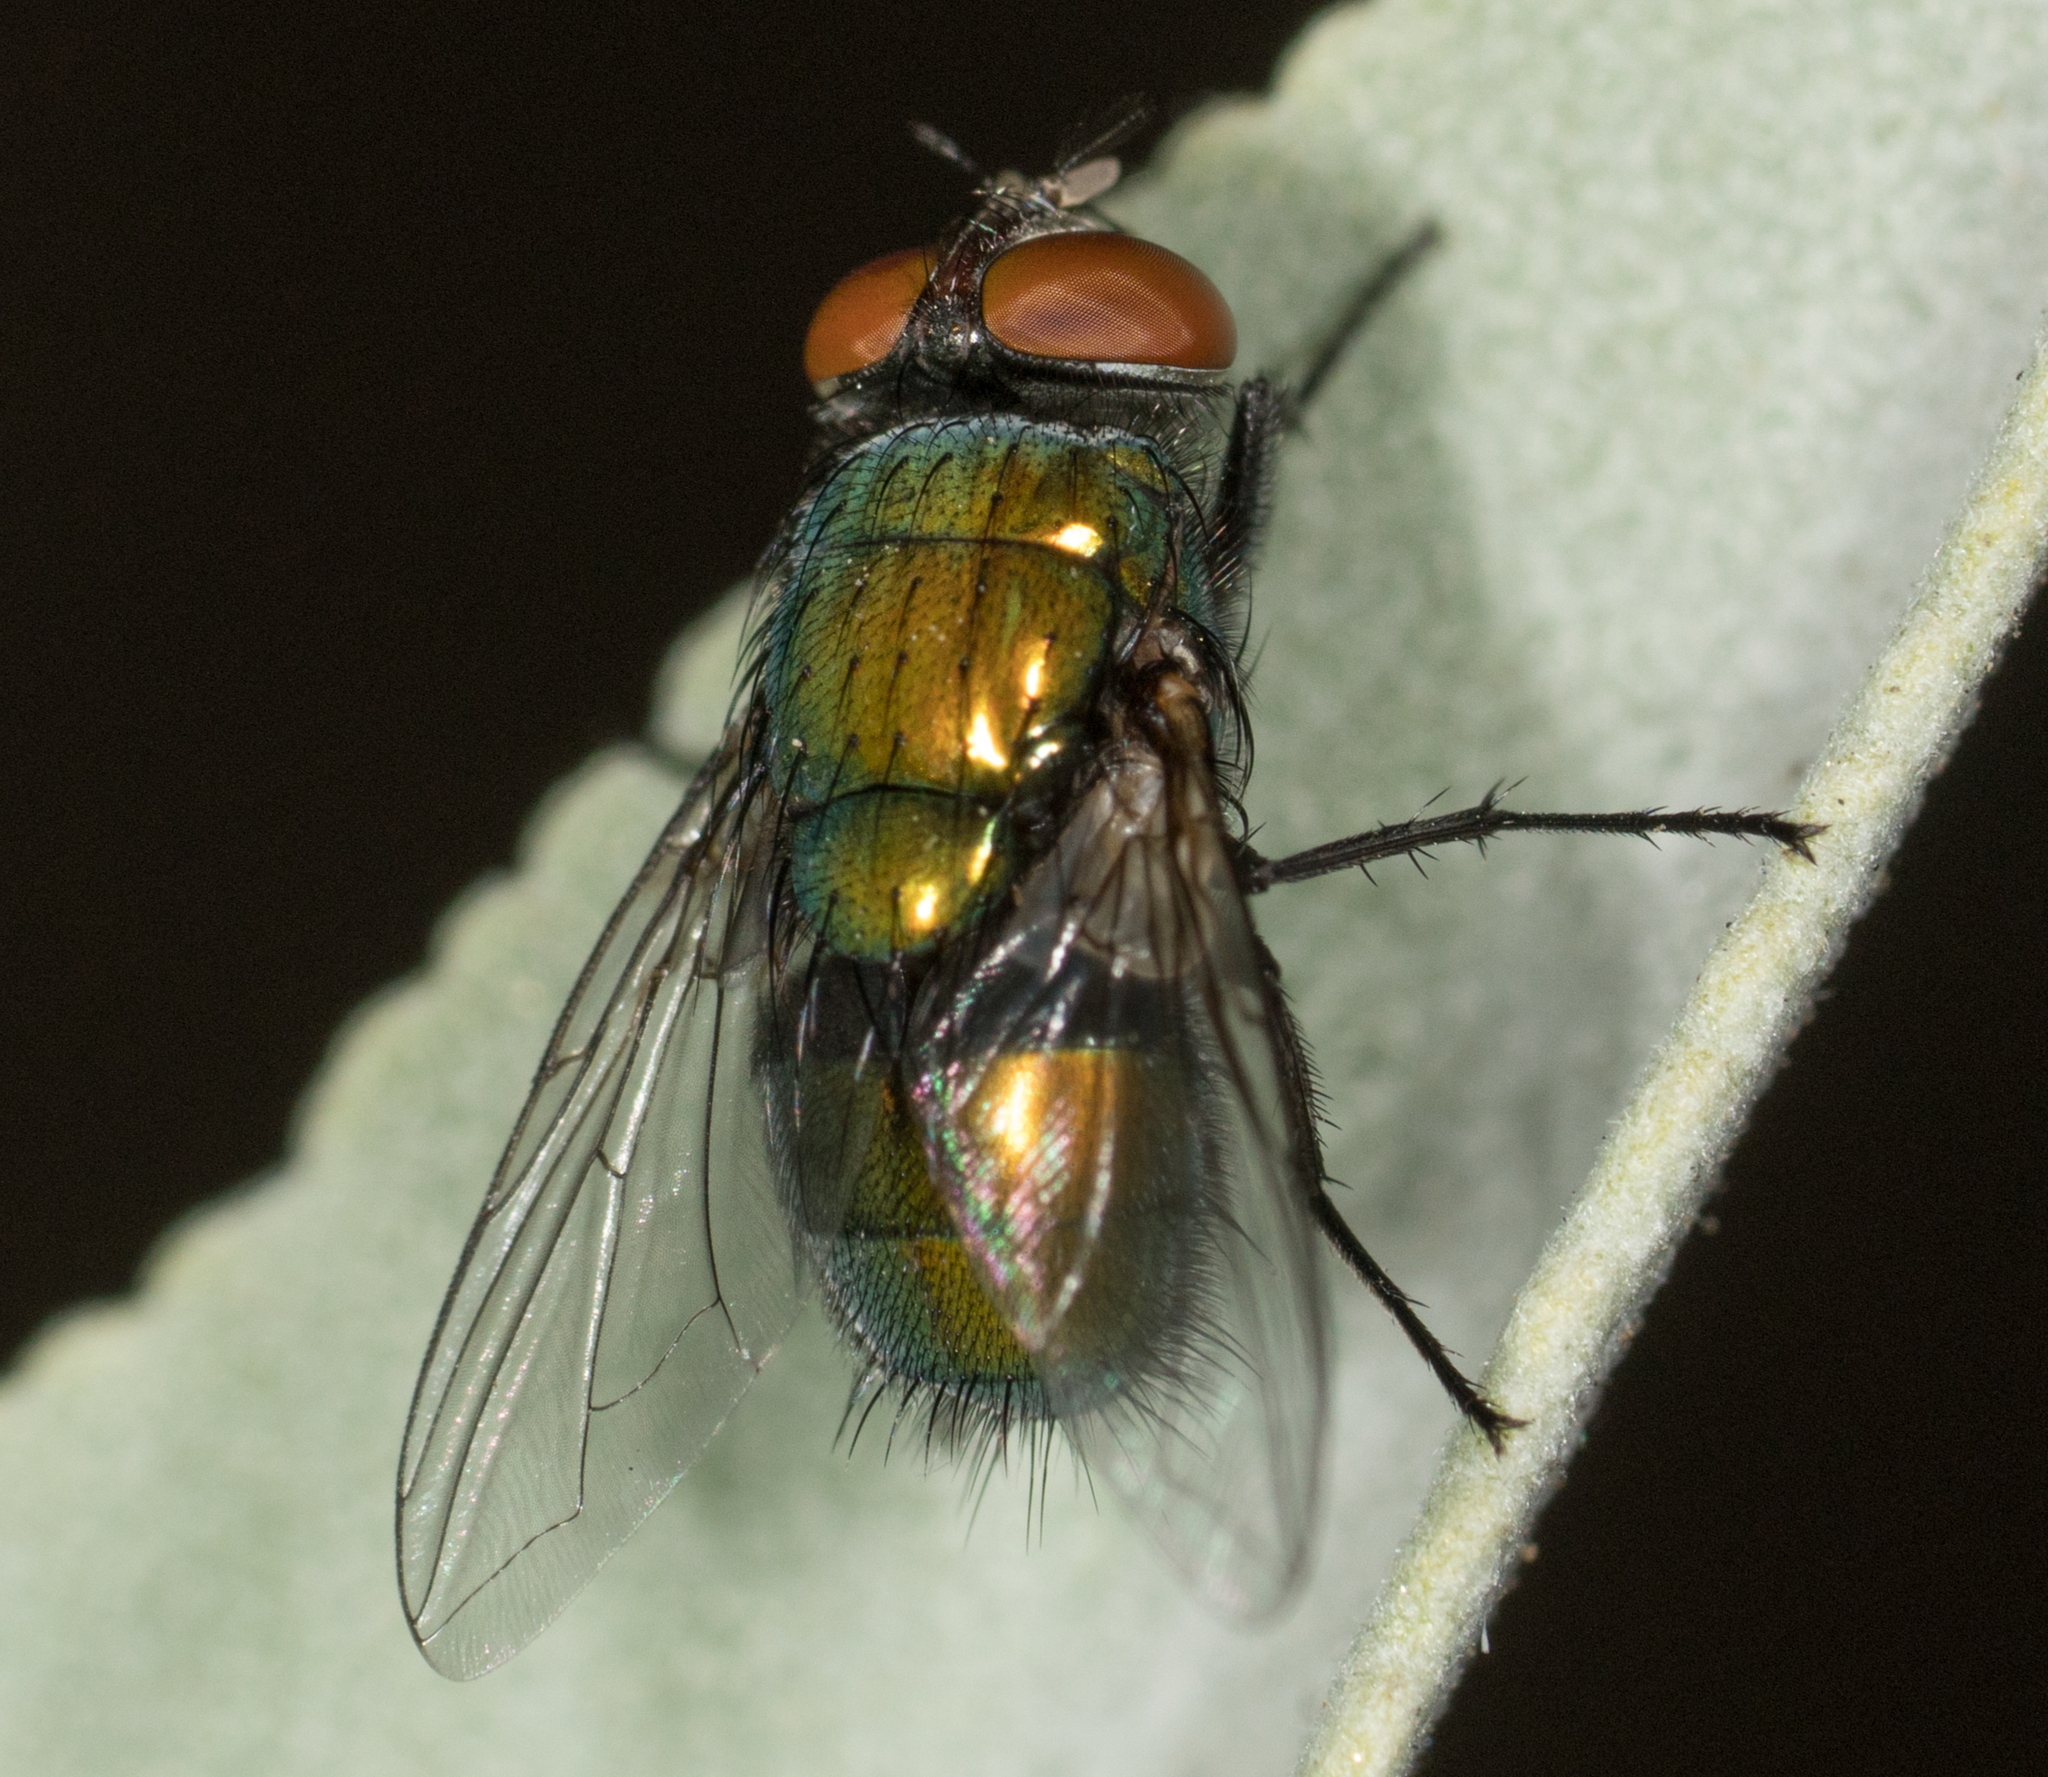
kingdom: Animalia
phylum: Arthropoda
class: Insecta
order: Diptera
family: Calliphoridae
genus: Lucilia
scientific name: Lucilia sericata
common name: Blow fly
